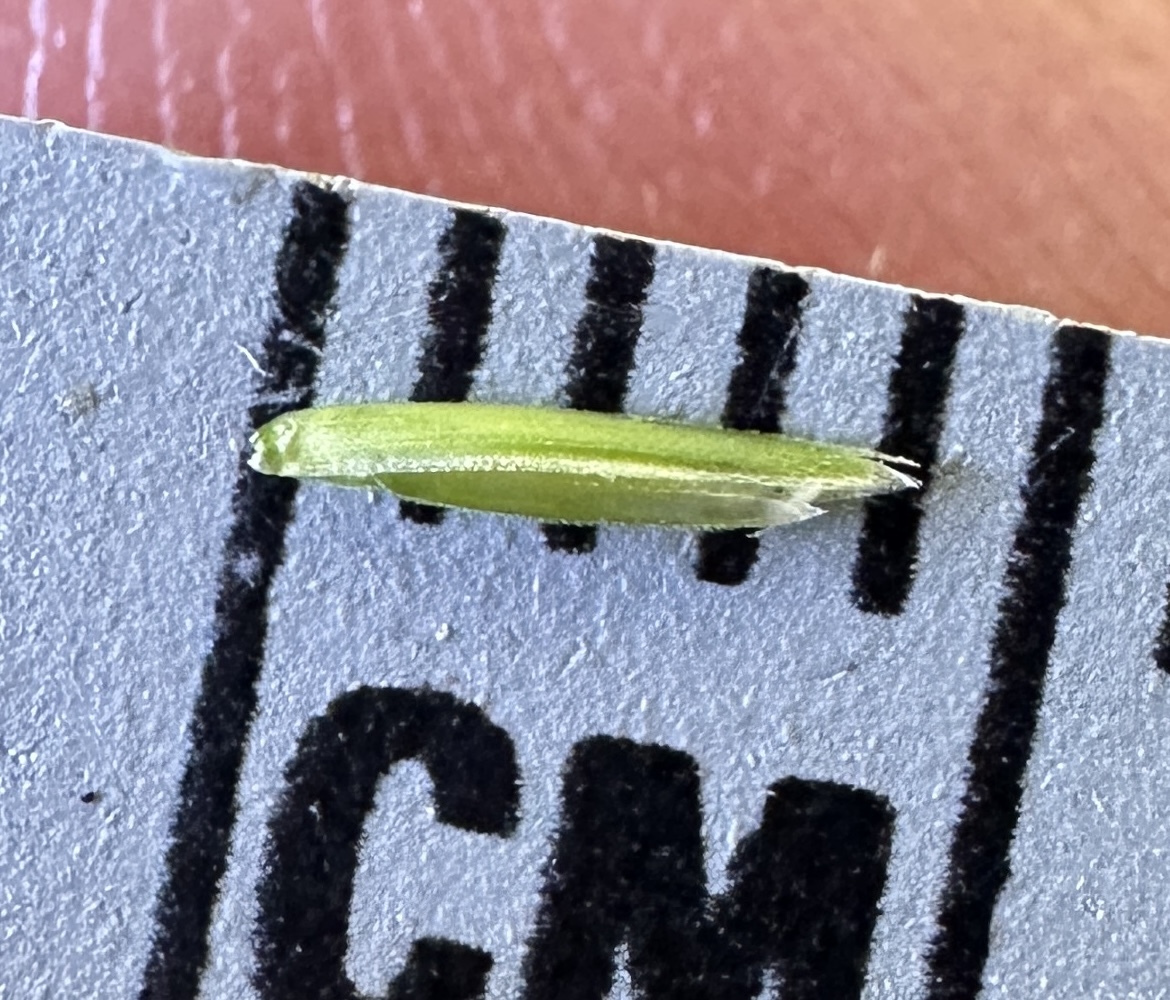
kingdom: Plantae
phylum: Tracheophyta
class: Liliopsida
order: Poales
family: Poaceae
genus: Cinna
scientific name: Cinna arundinacea
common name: Stout woodreed
